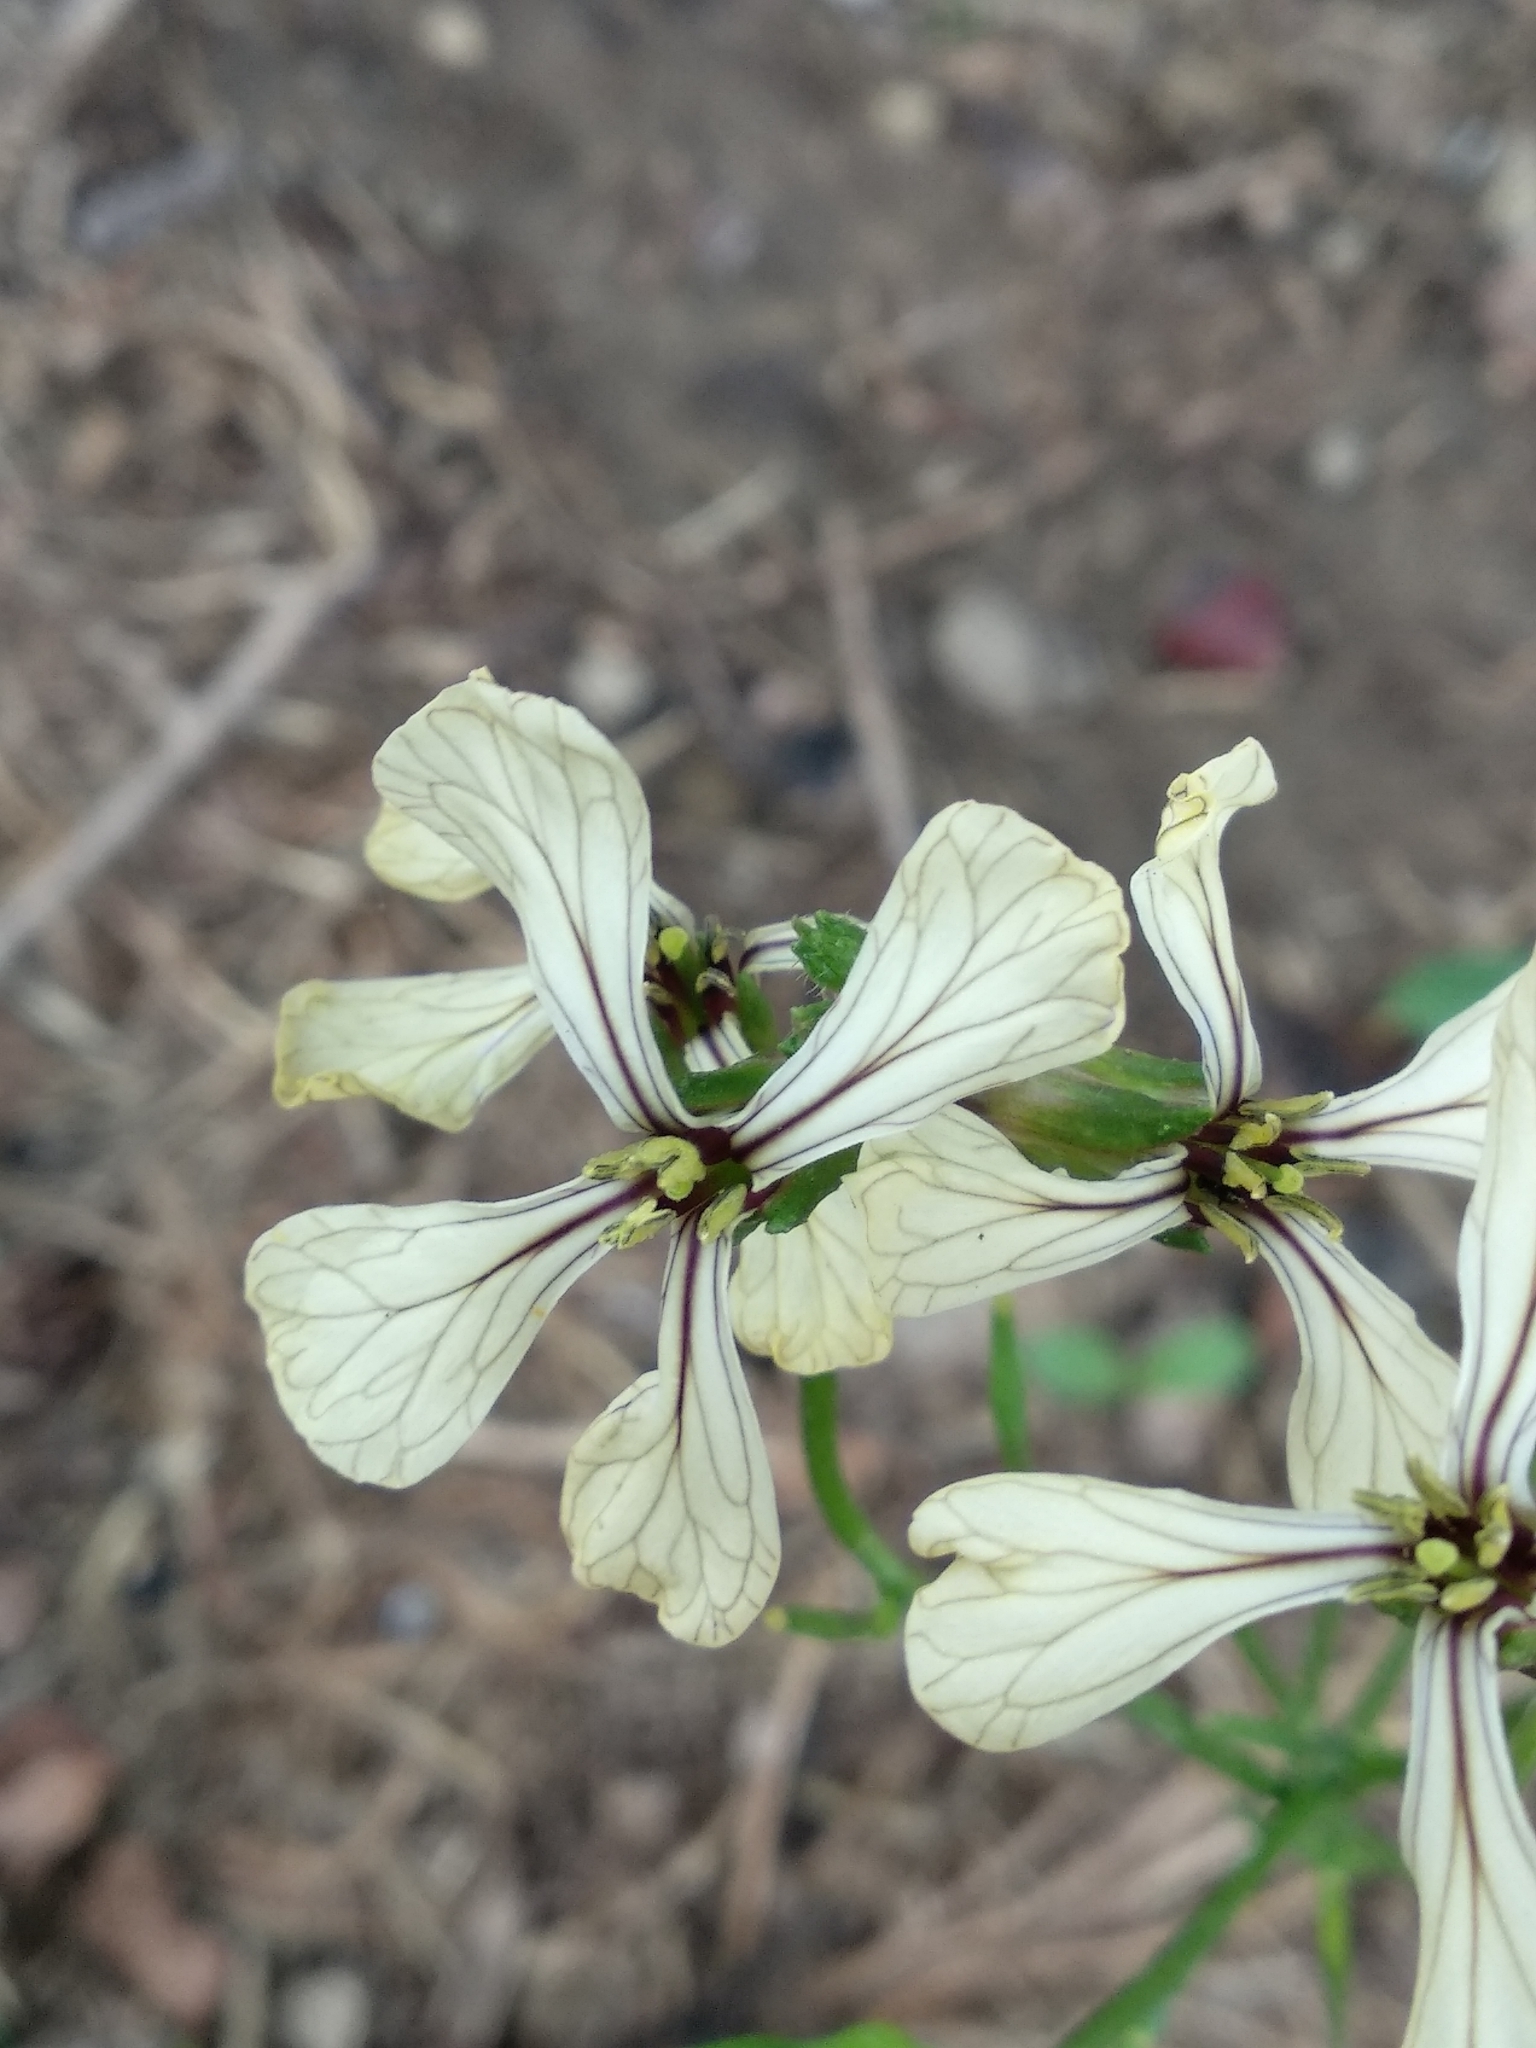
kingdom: Plantae
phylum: Tracheophyta
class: Magnoliopsida
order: Brassicales
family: Brassicaceae
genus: Eruca
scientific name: Eruca vesicaria
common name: Garden rocket
